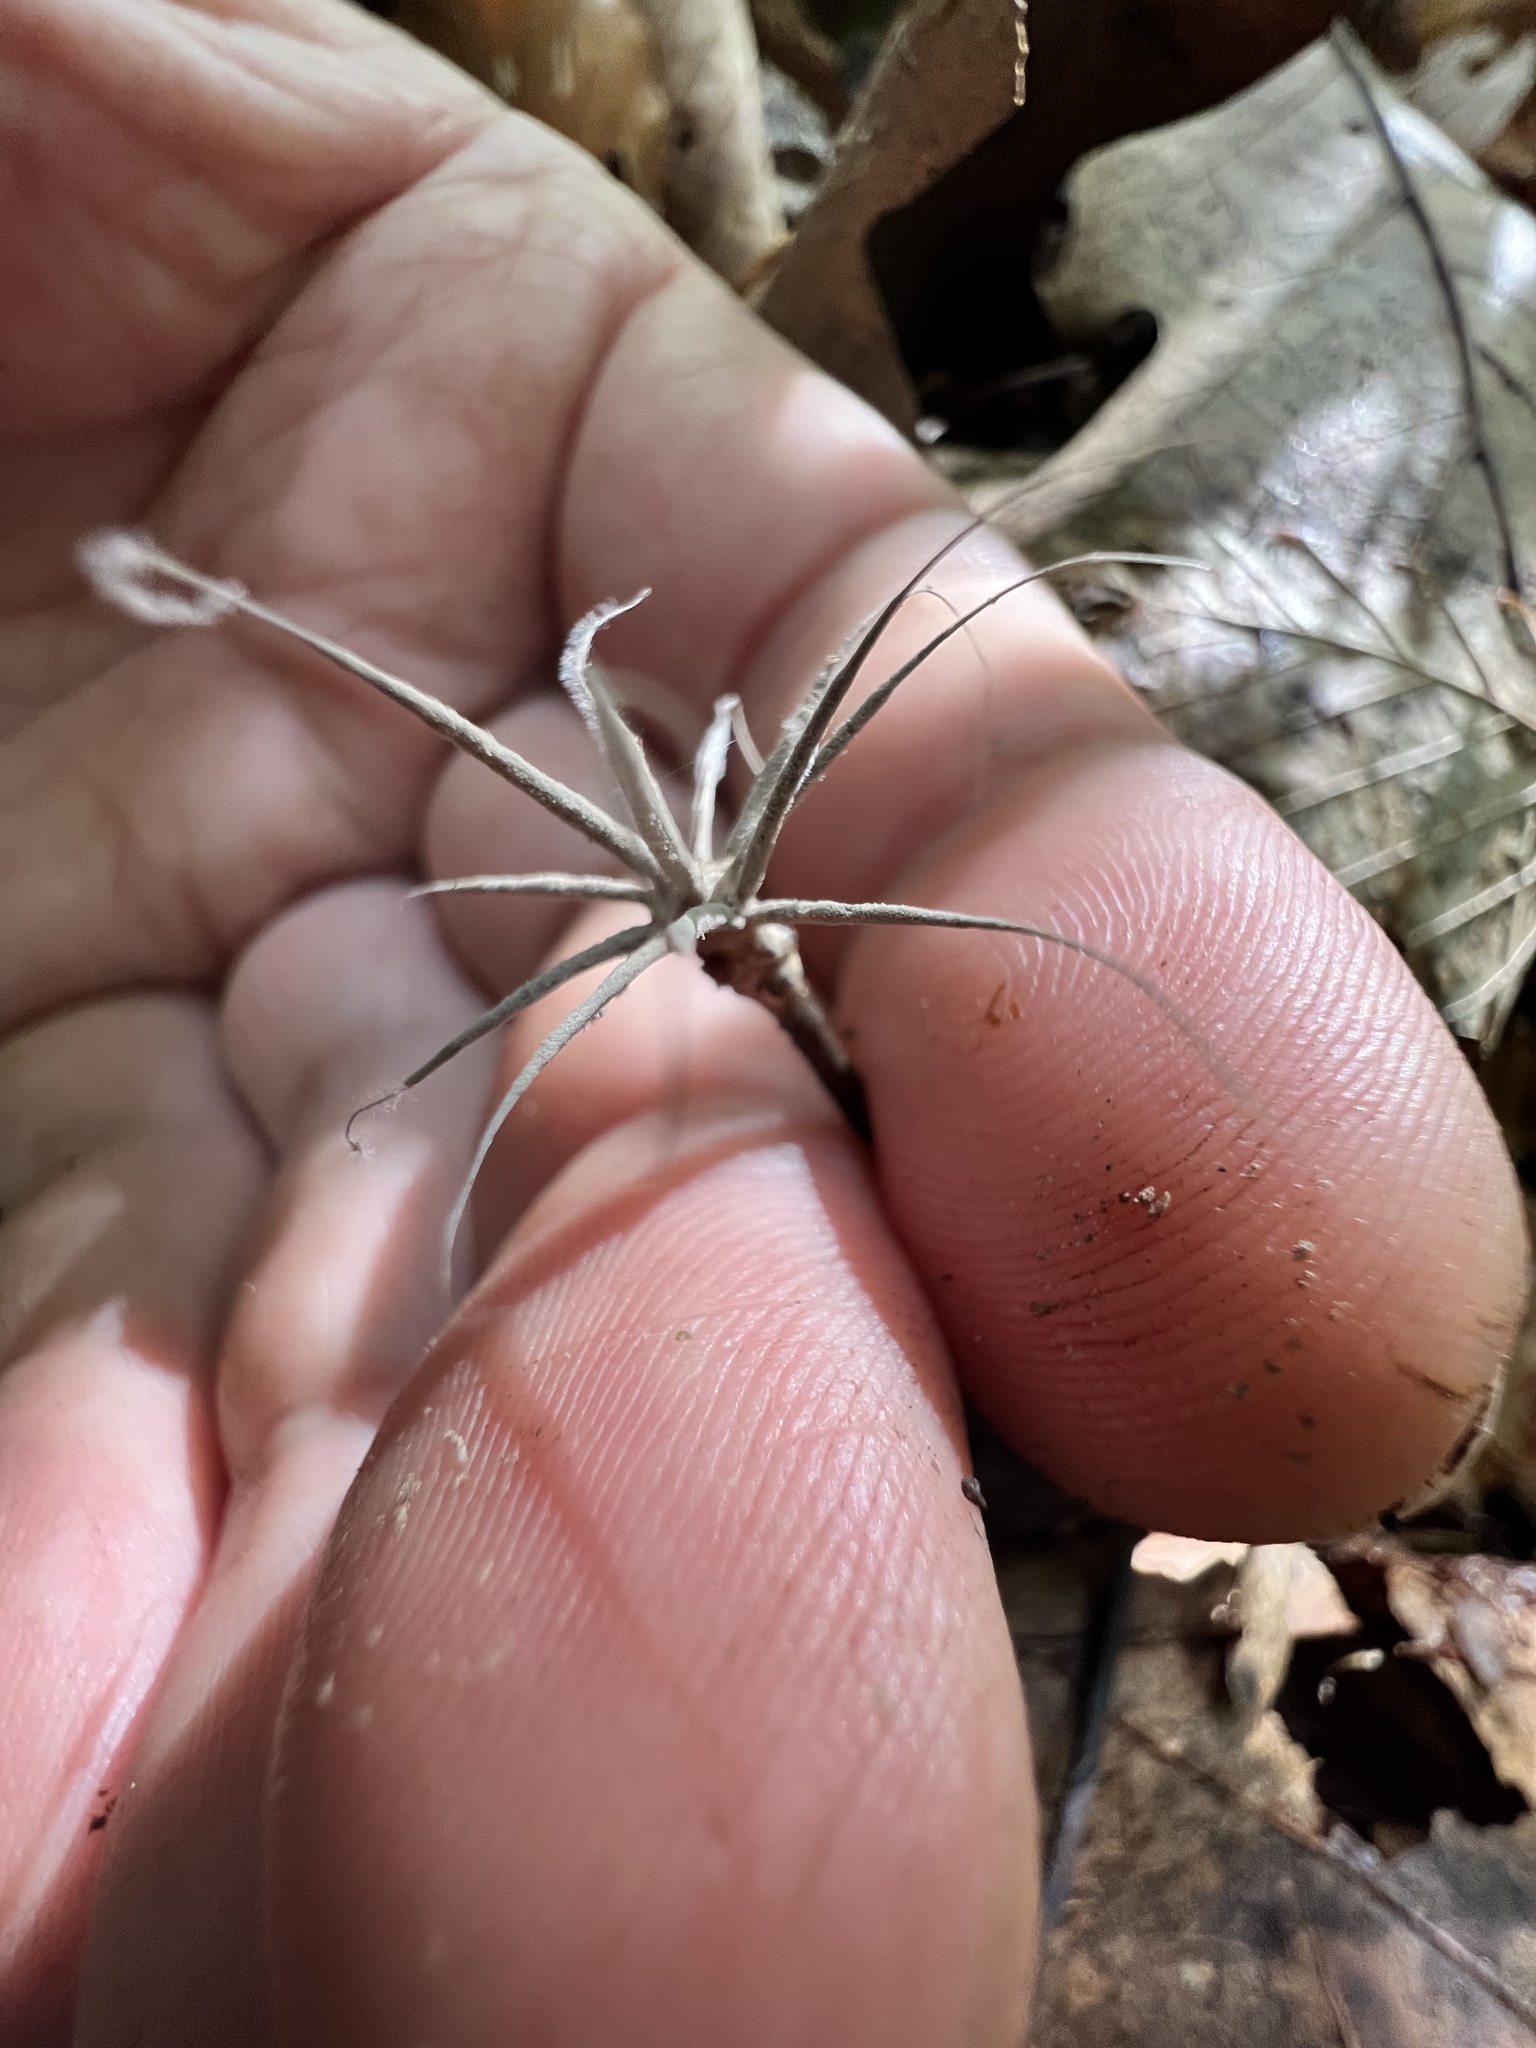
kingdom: Fungi
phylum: Ascomycota
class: Sordariomycetes
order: Xylariales
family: Xylariaceae
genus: Xylaria
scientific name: Xylaria tentaculata
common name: Fairy sparklers
